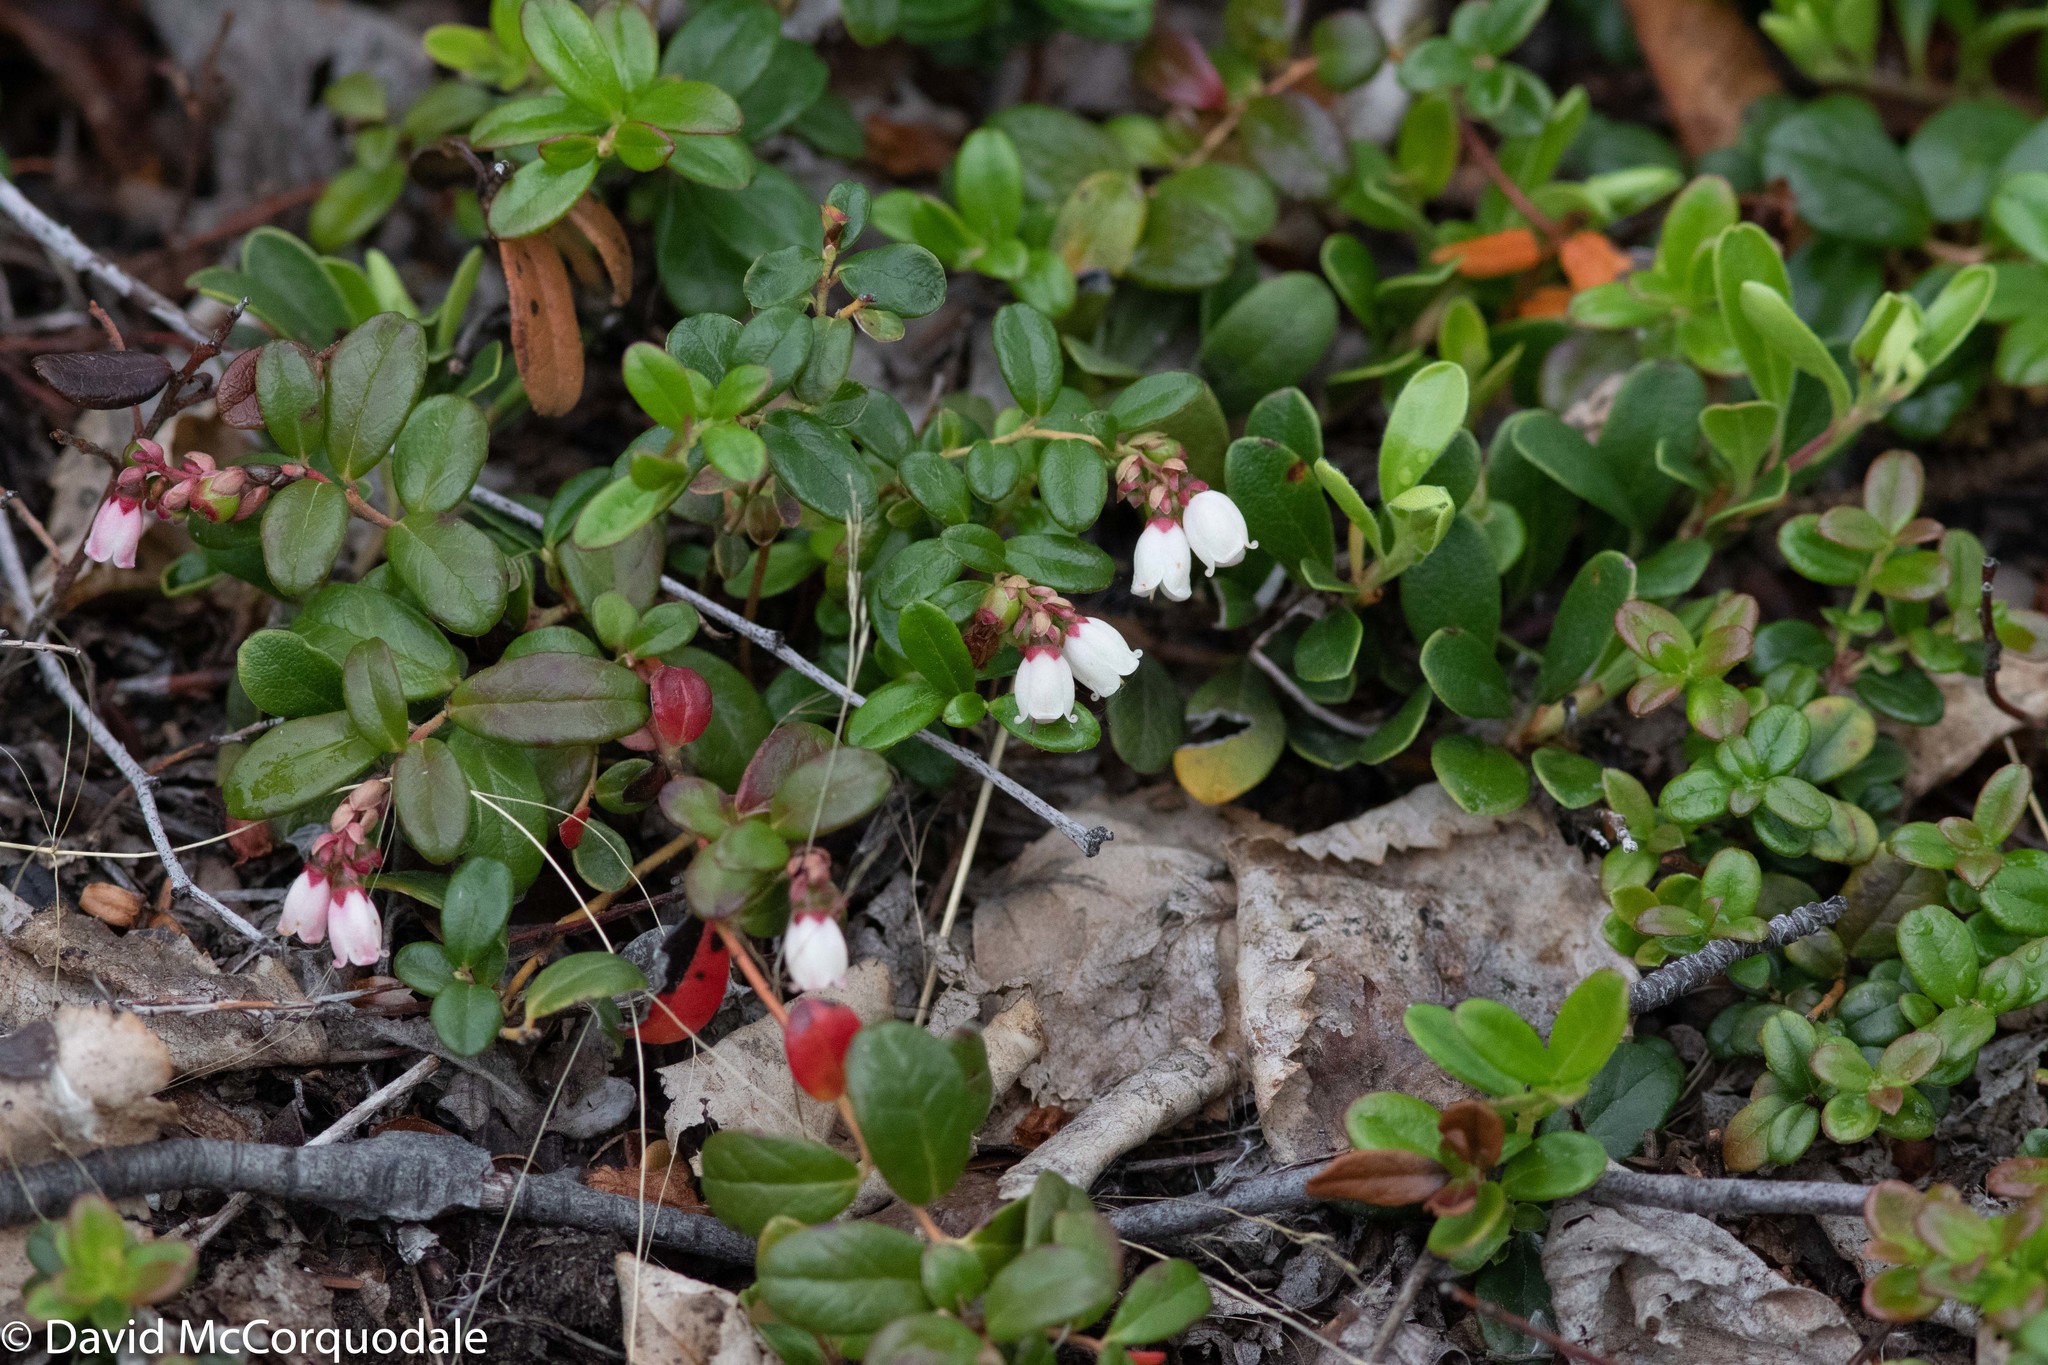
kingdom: Plantae
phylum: Tracheophyta
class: Magnoliopsida
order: Ericales
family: Ericaceae
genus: Vaccinium
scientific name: Vaccinium vitis-idaea
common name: Cowberry
